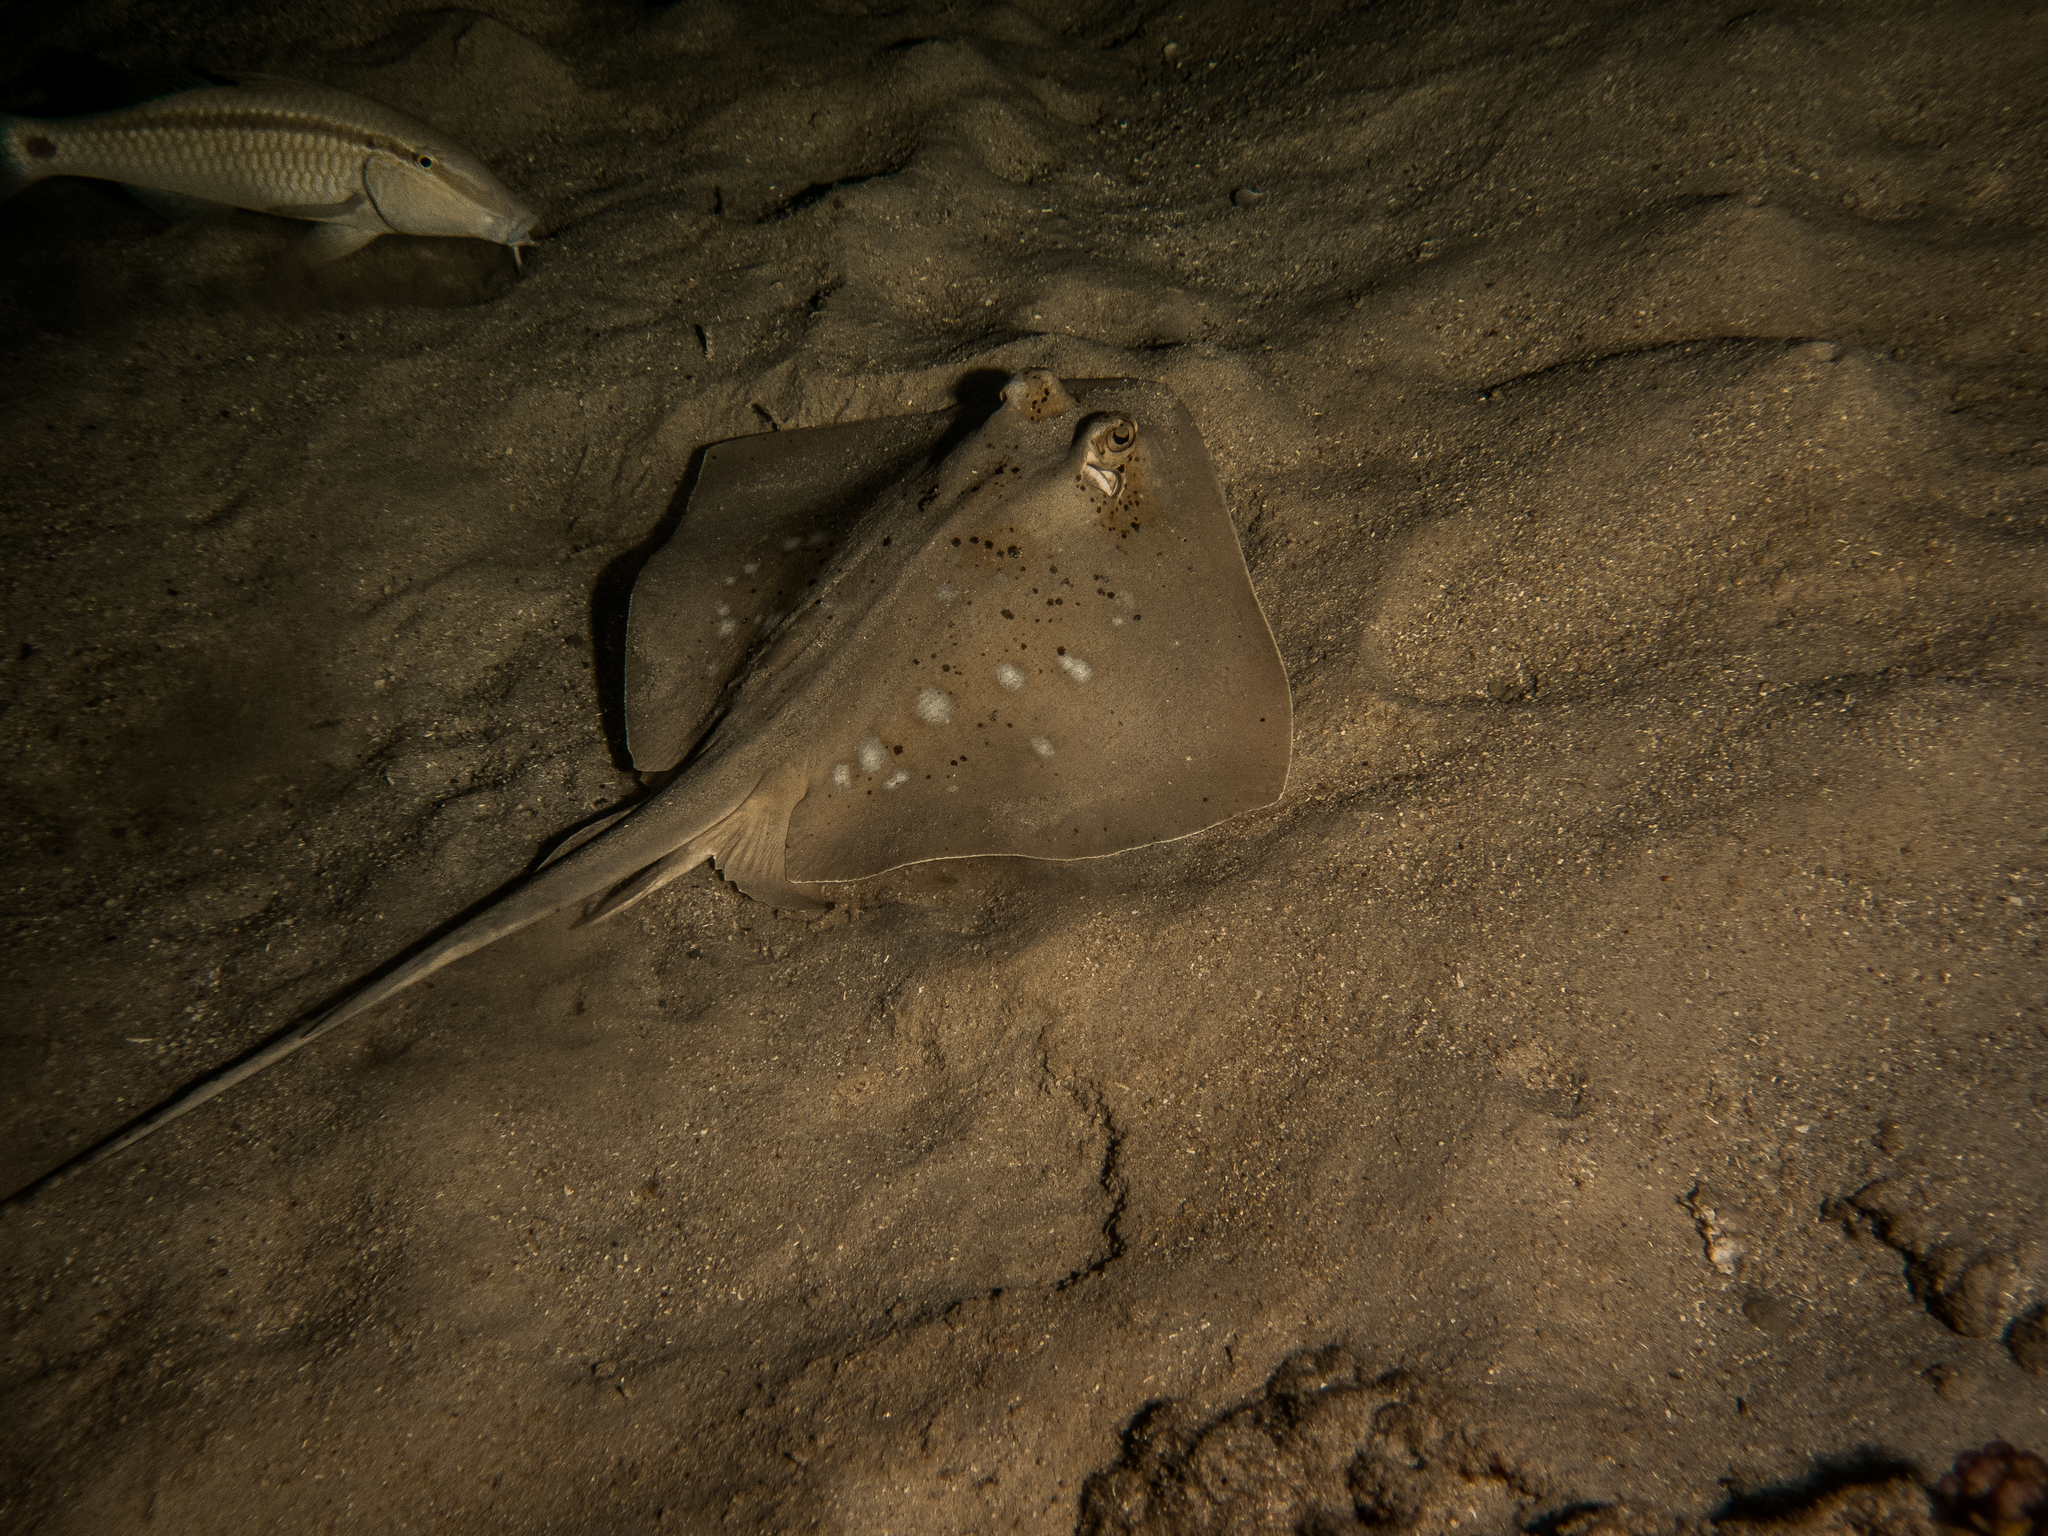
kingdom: Animalia
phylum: Chordata
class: Elasmobranchii
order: Myliobatiformes
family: Dasyatidae
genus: Neotrygon
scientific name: Neotrygon kuhlii
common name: Bluespotted stingray
